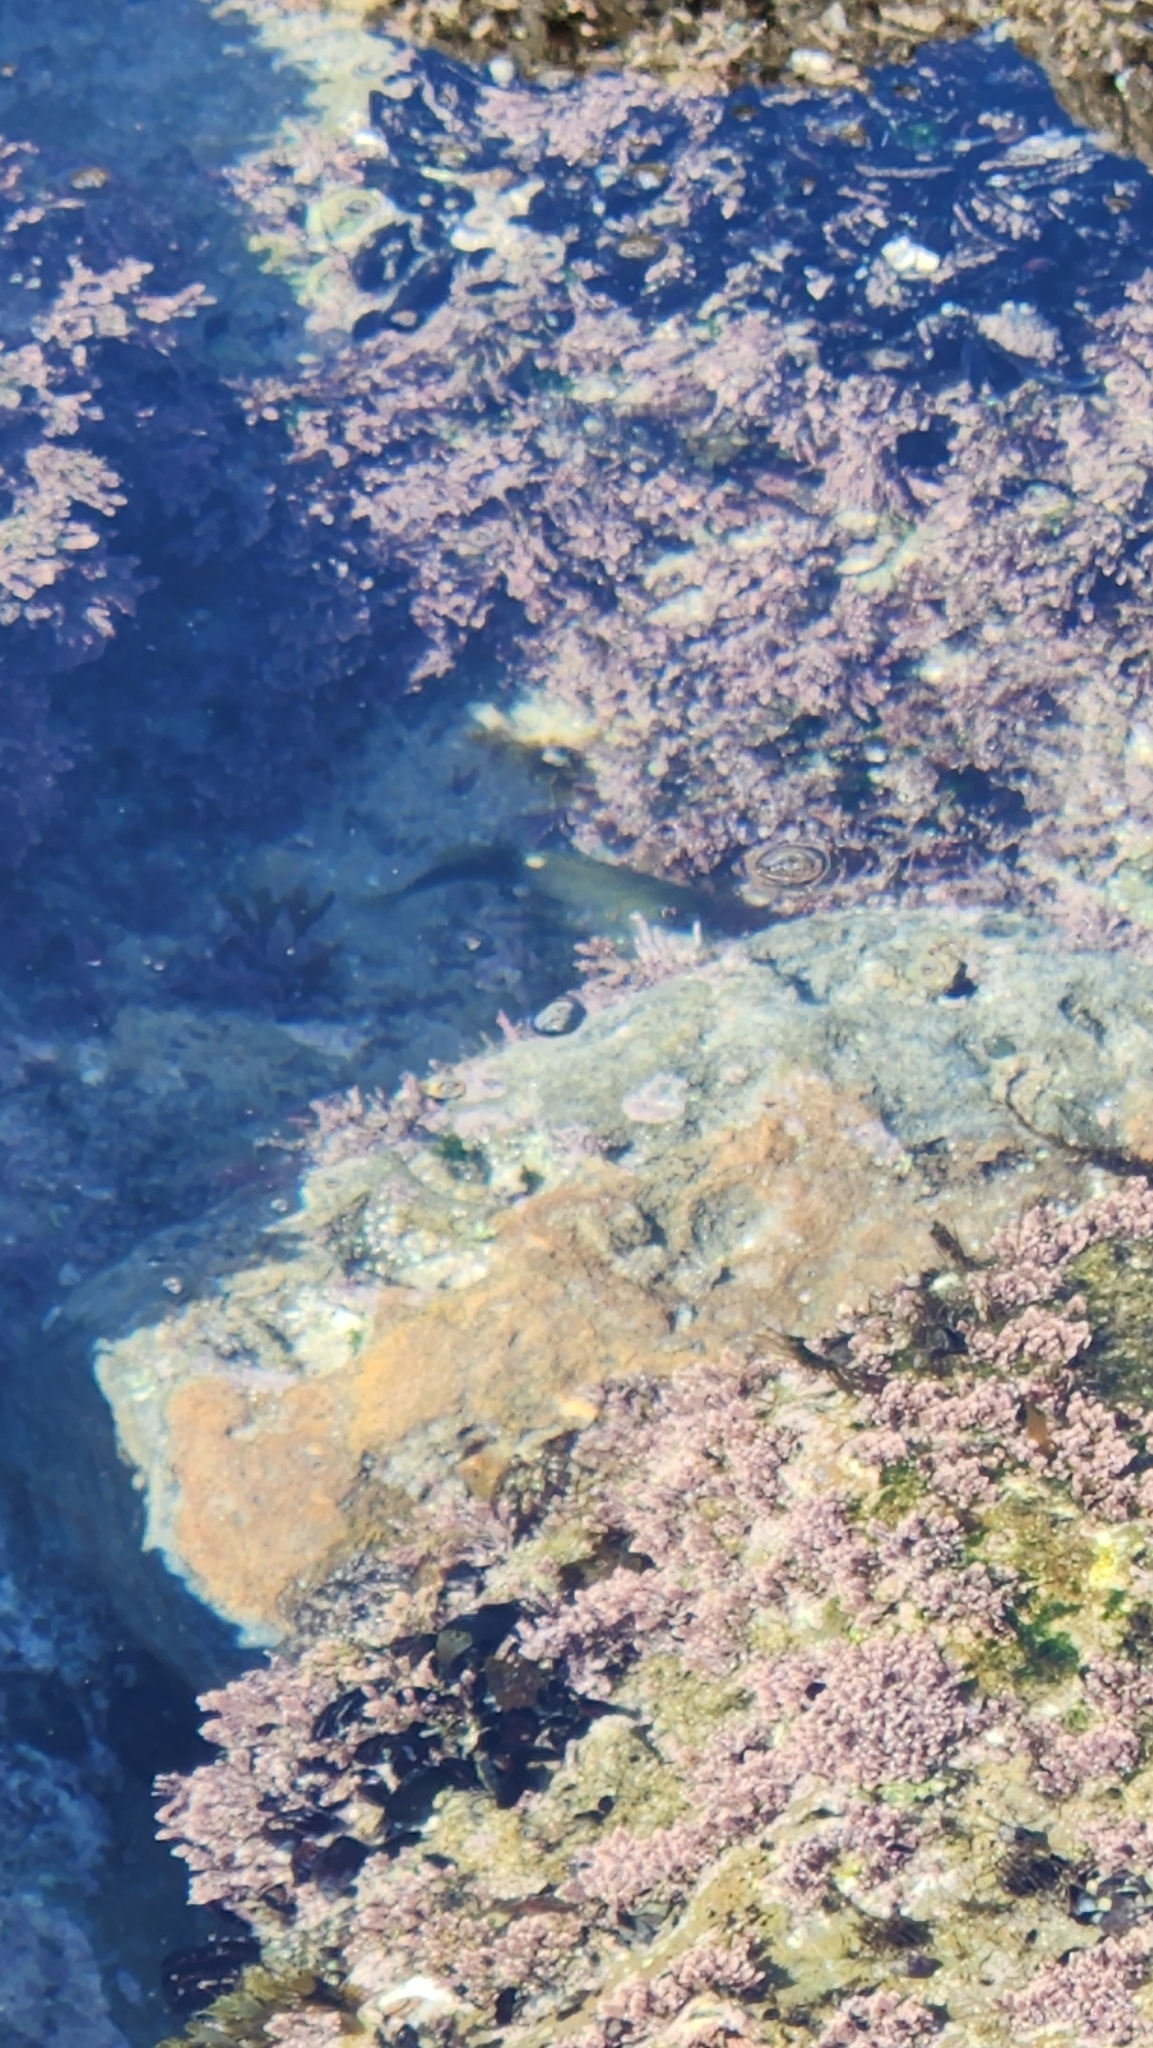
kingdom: Animalia
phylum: Chordata
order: Perciformes
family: Kyphosidae
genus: Girella
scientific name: Girella nigricans
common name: Opaleye
